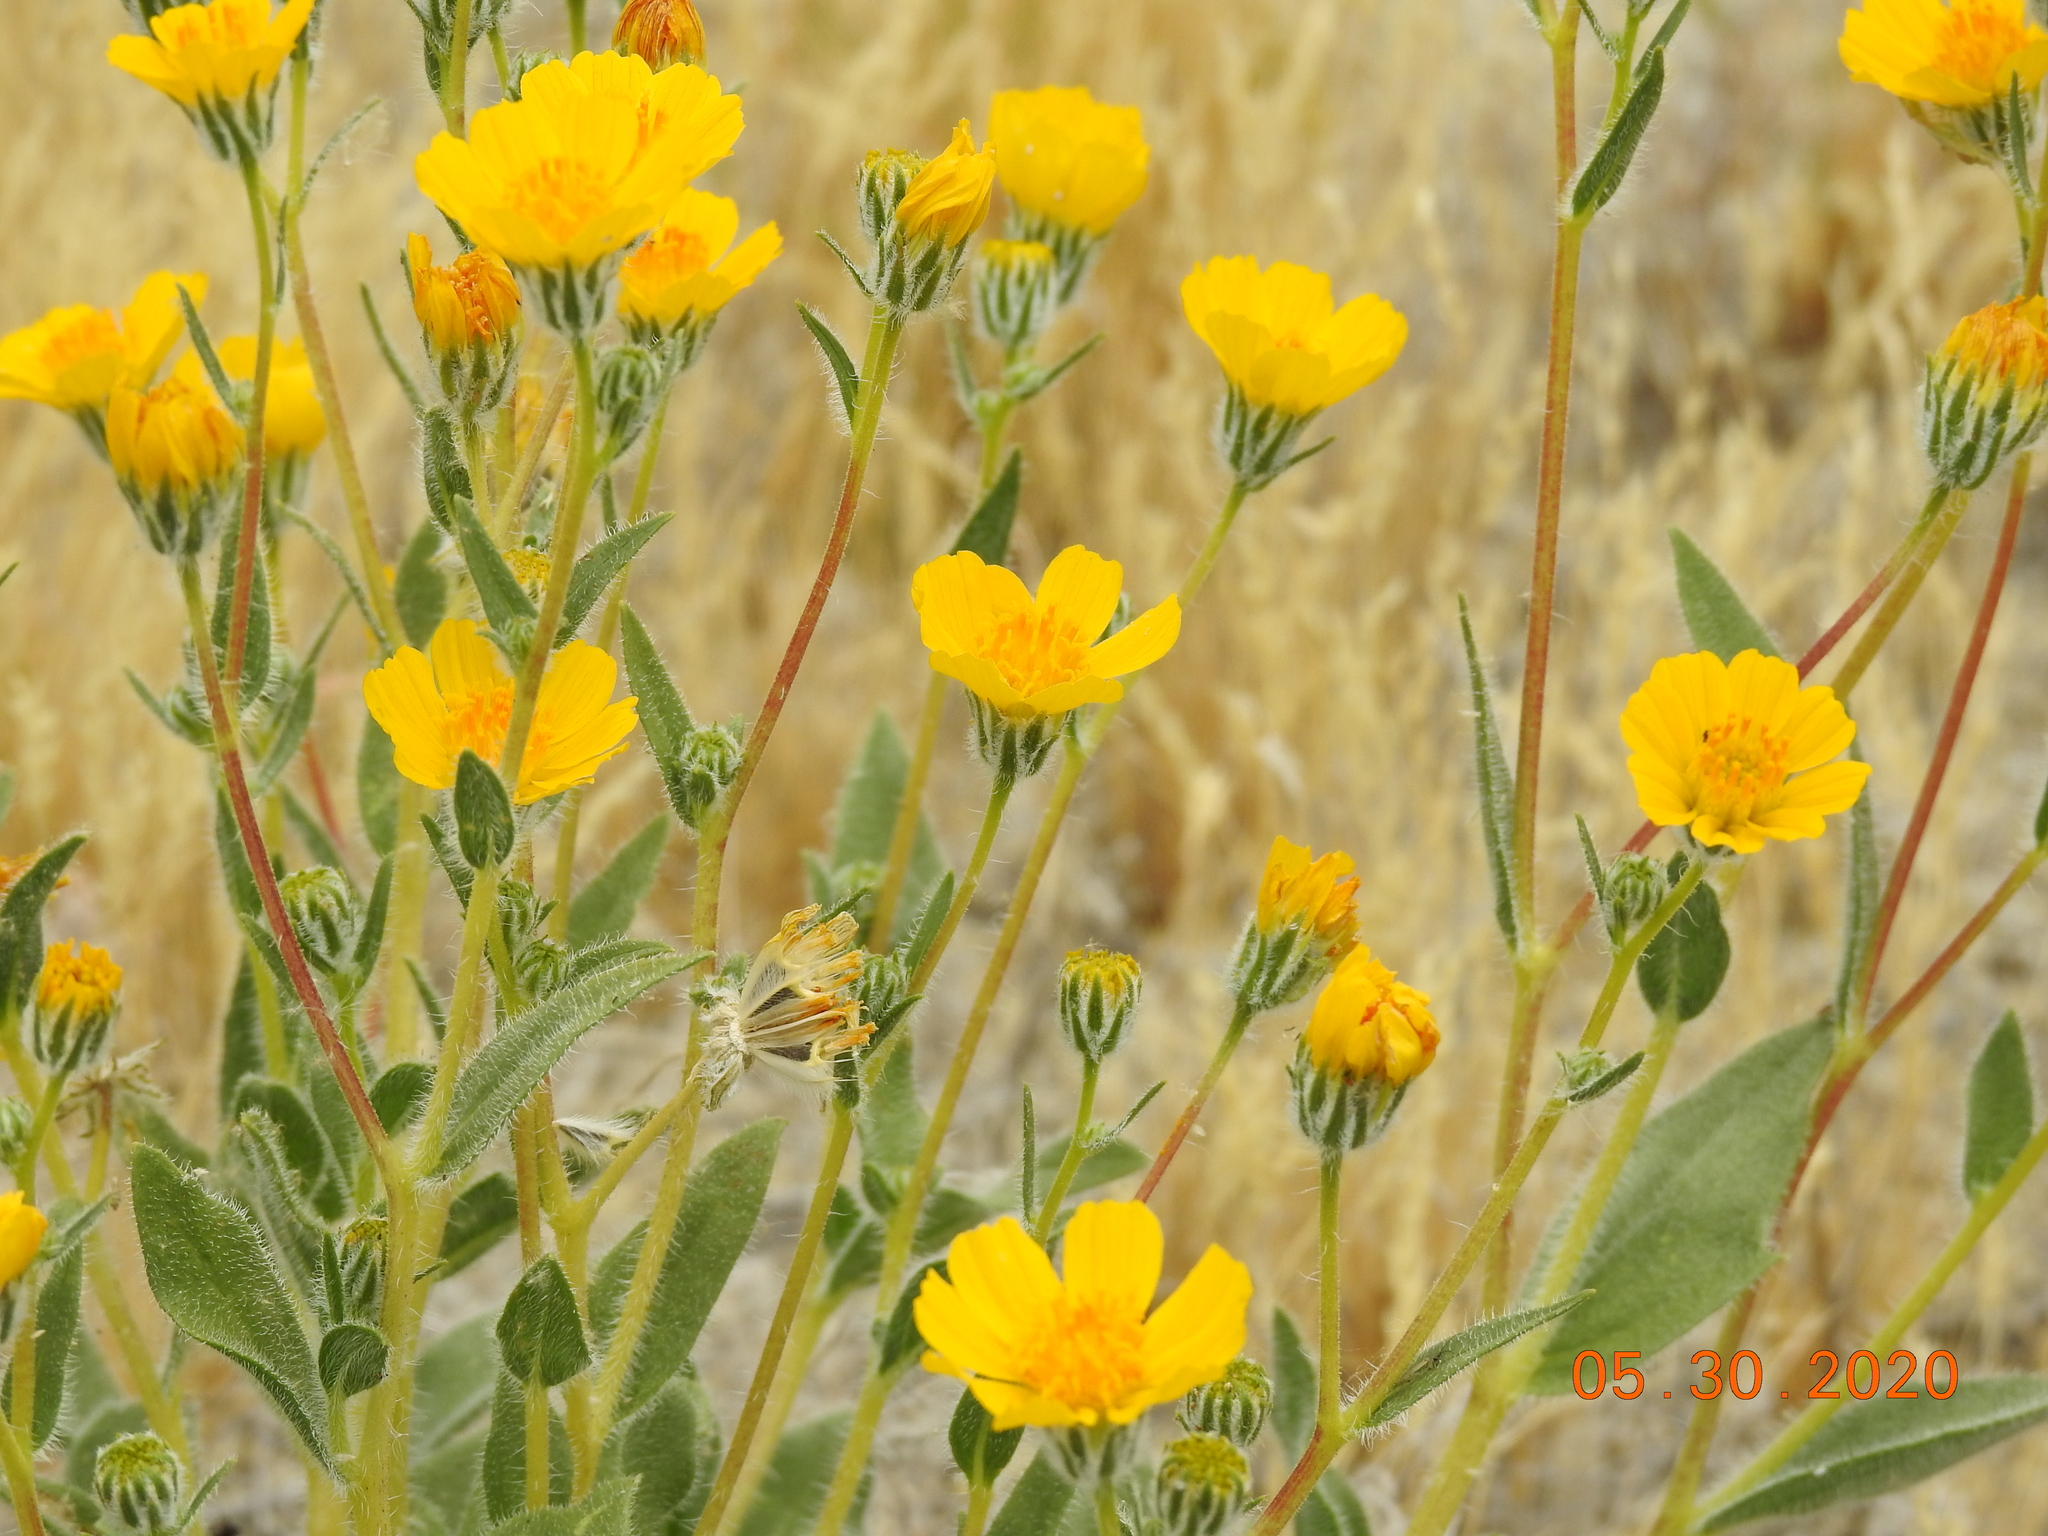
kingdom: Plantae
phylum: Tracheophyta
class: Magnoliopsida
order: Asterales
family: Asteraceae
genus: Geraea
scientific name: Geraea canescens
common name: Desert-gold
